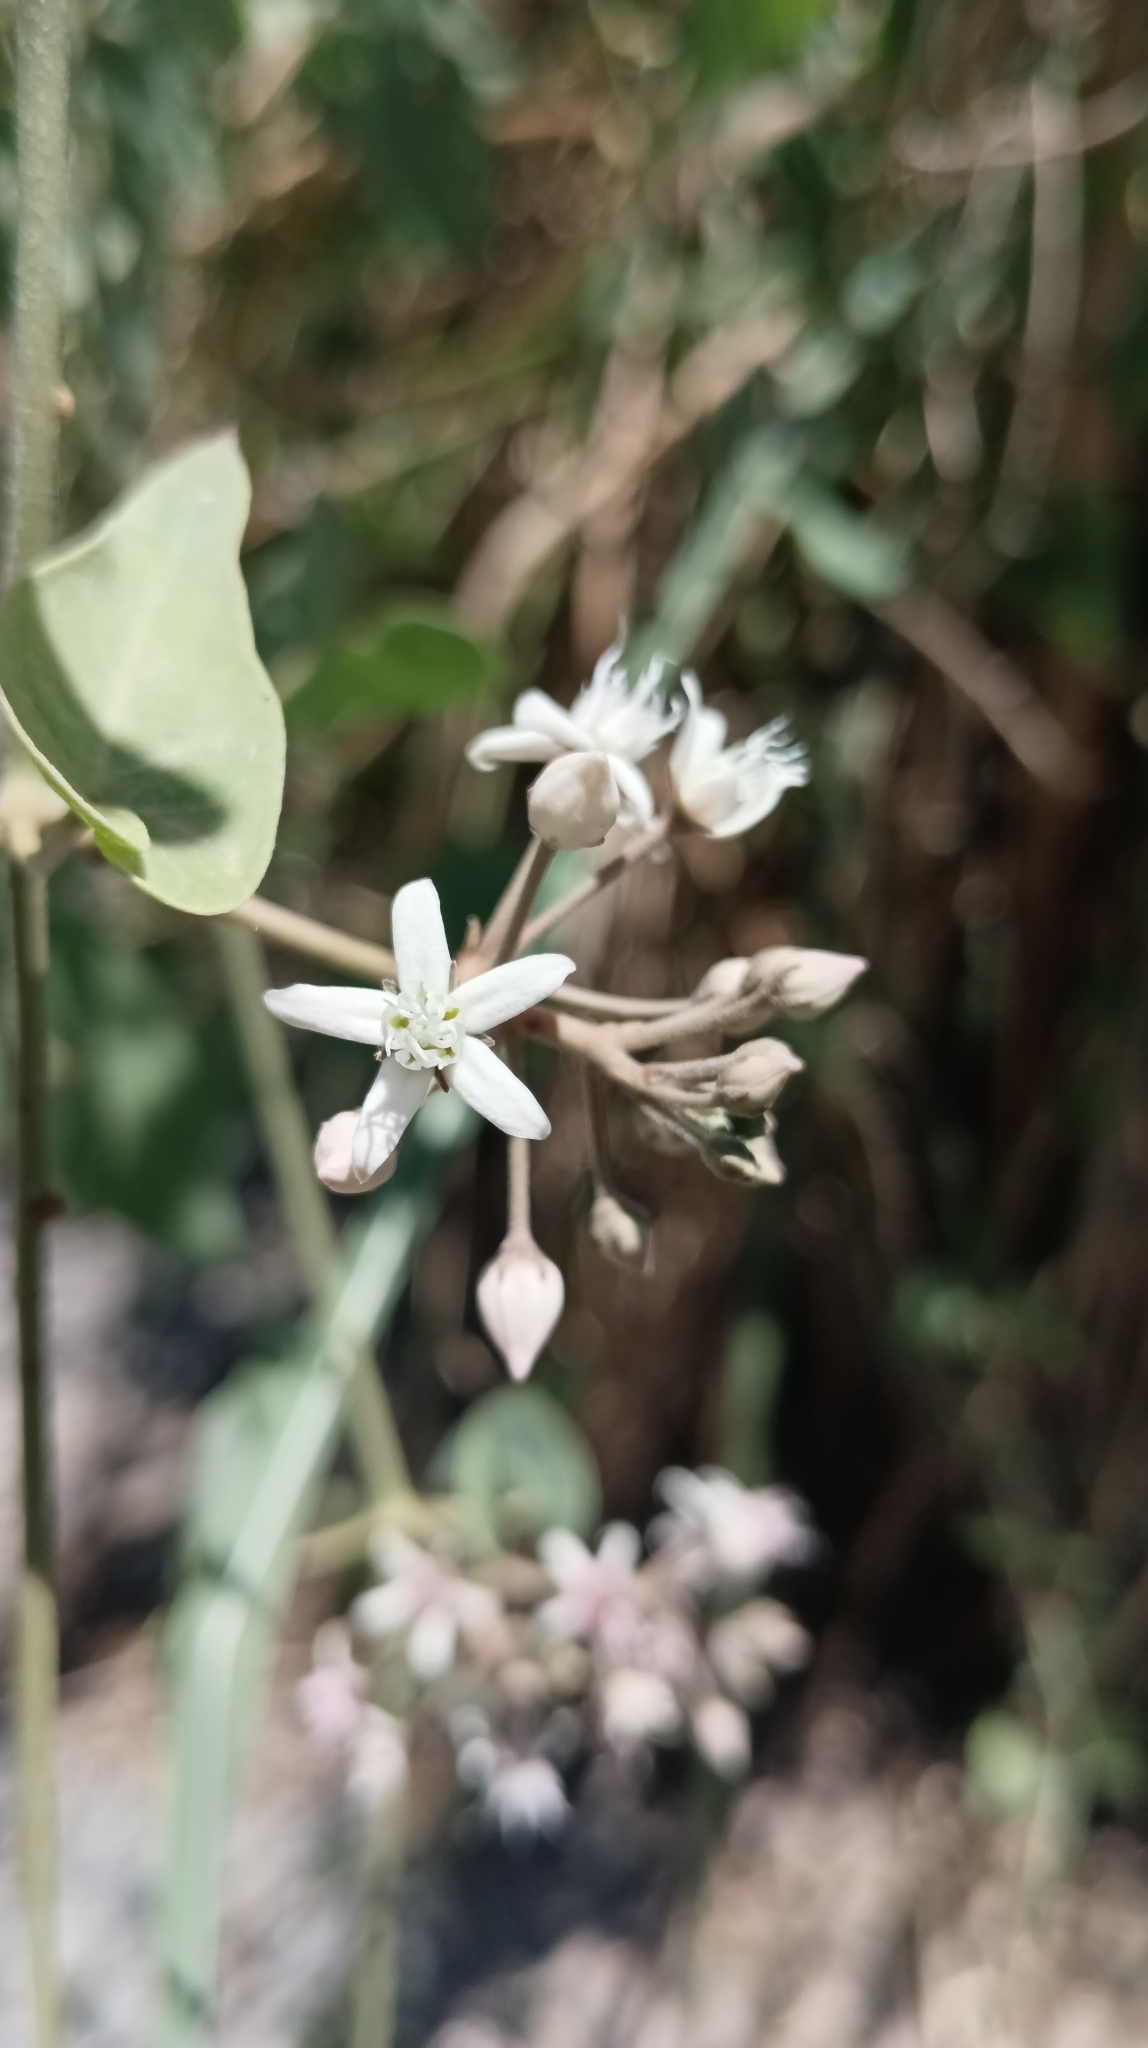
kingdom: Plantae
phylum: Tracheophyta
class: Magnoliopsida
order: Gentianales
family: Apocynaceae
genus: Cynanchum
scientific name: Cynanchum acutum
